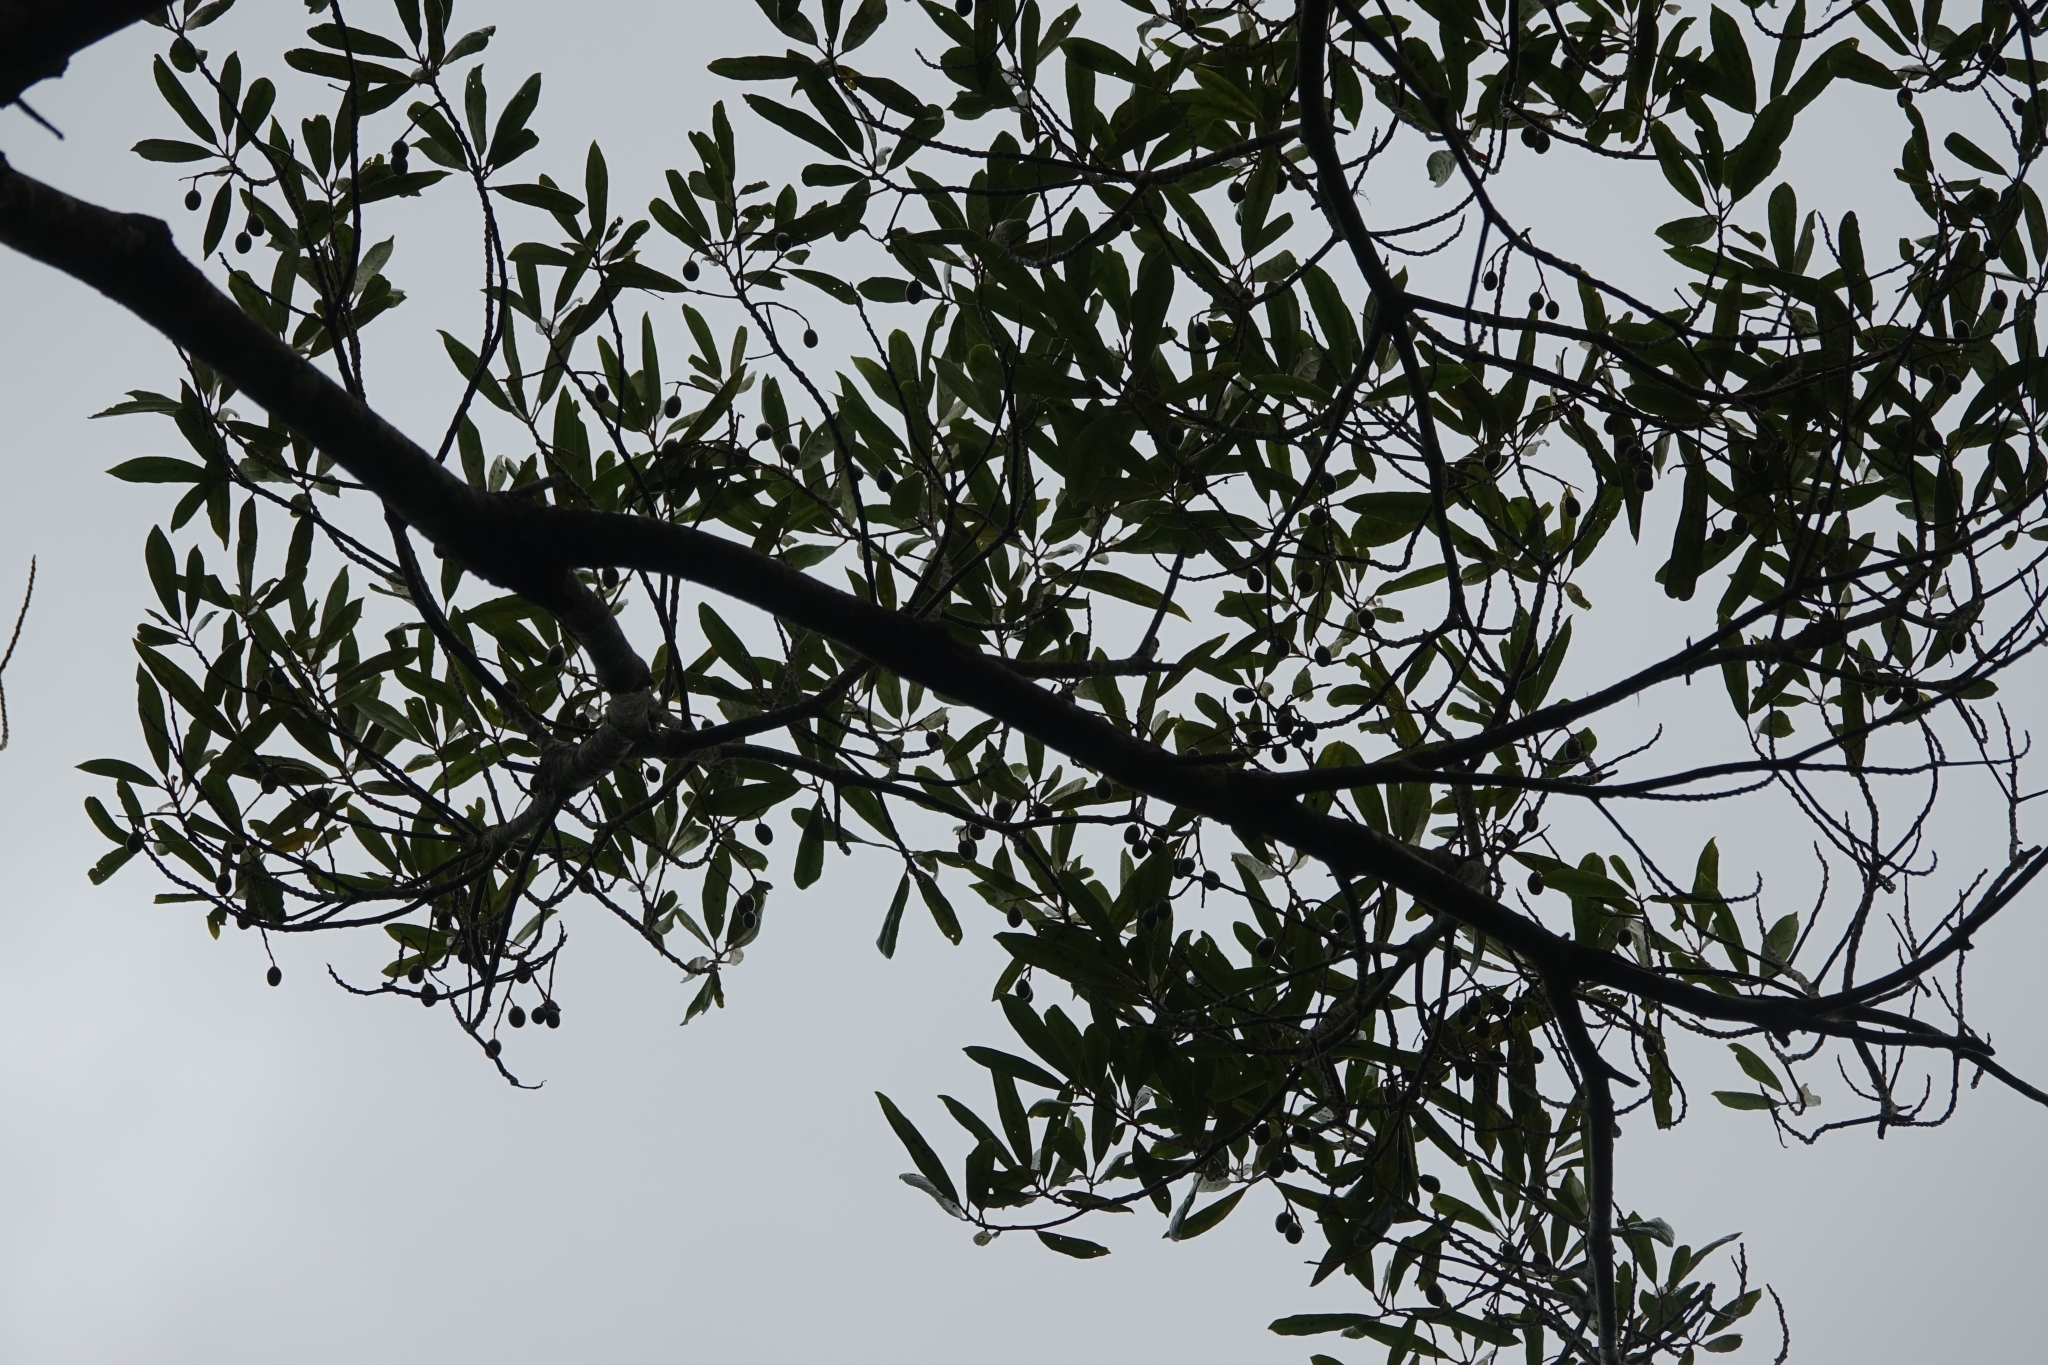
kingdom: Plantae
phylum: Tracheophyta
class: Magnoliopsida
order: Oxalidales
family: Elaeocarpaceae
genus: Elaeocarpus
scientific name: Elaeocarpus dentatus
